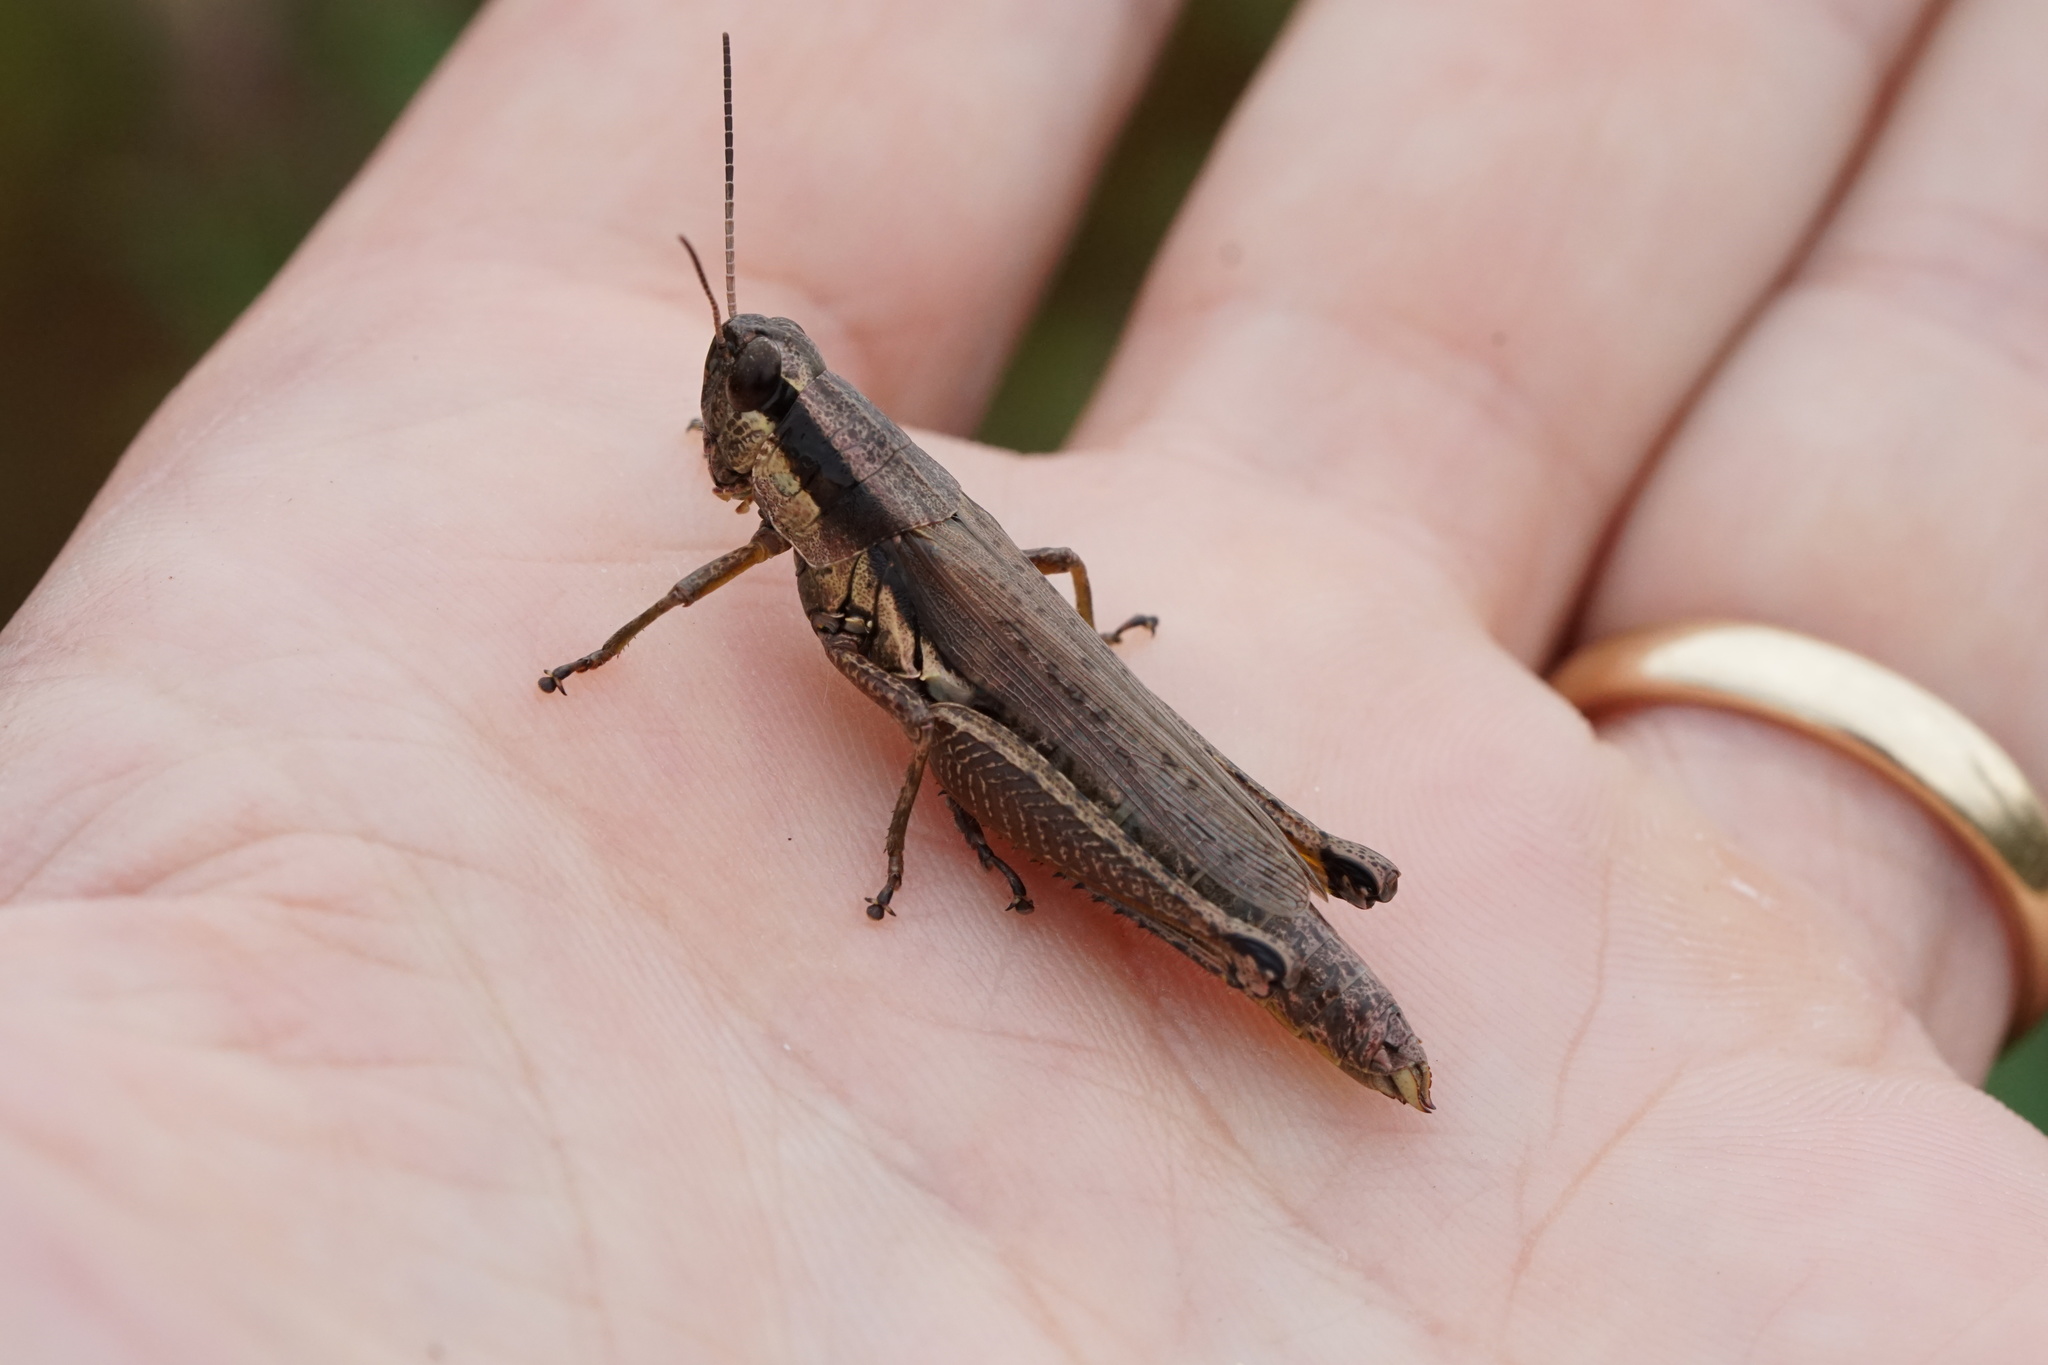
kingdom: Animalia
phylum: Arthropoda
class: Insecta
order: Orthoptera
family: Acrididae
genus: Paroxya
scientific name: Paroxya clavuligera
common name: Olive-green swamp grasshopper
